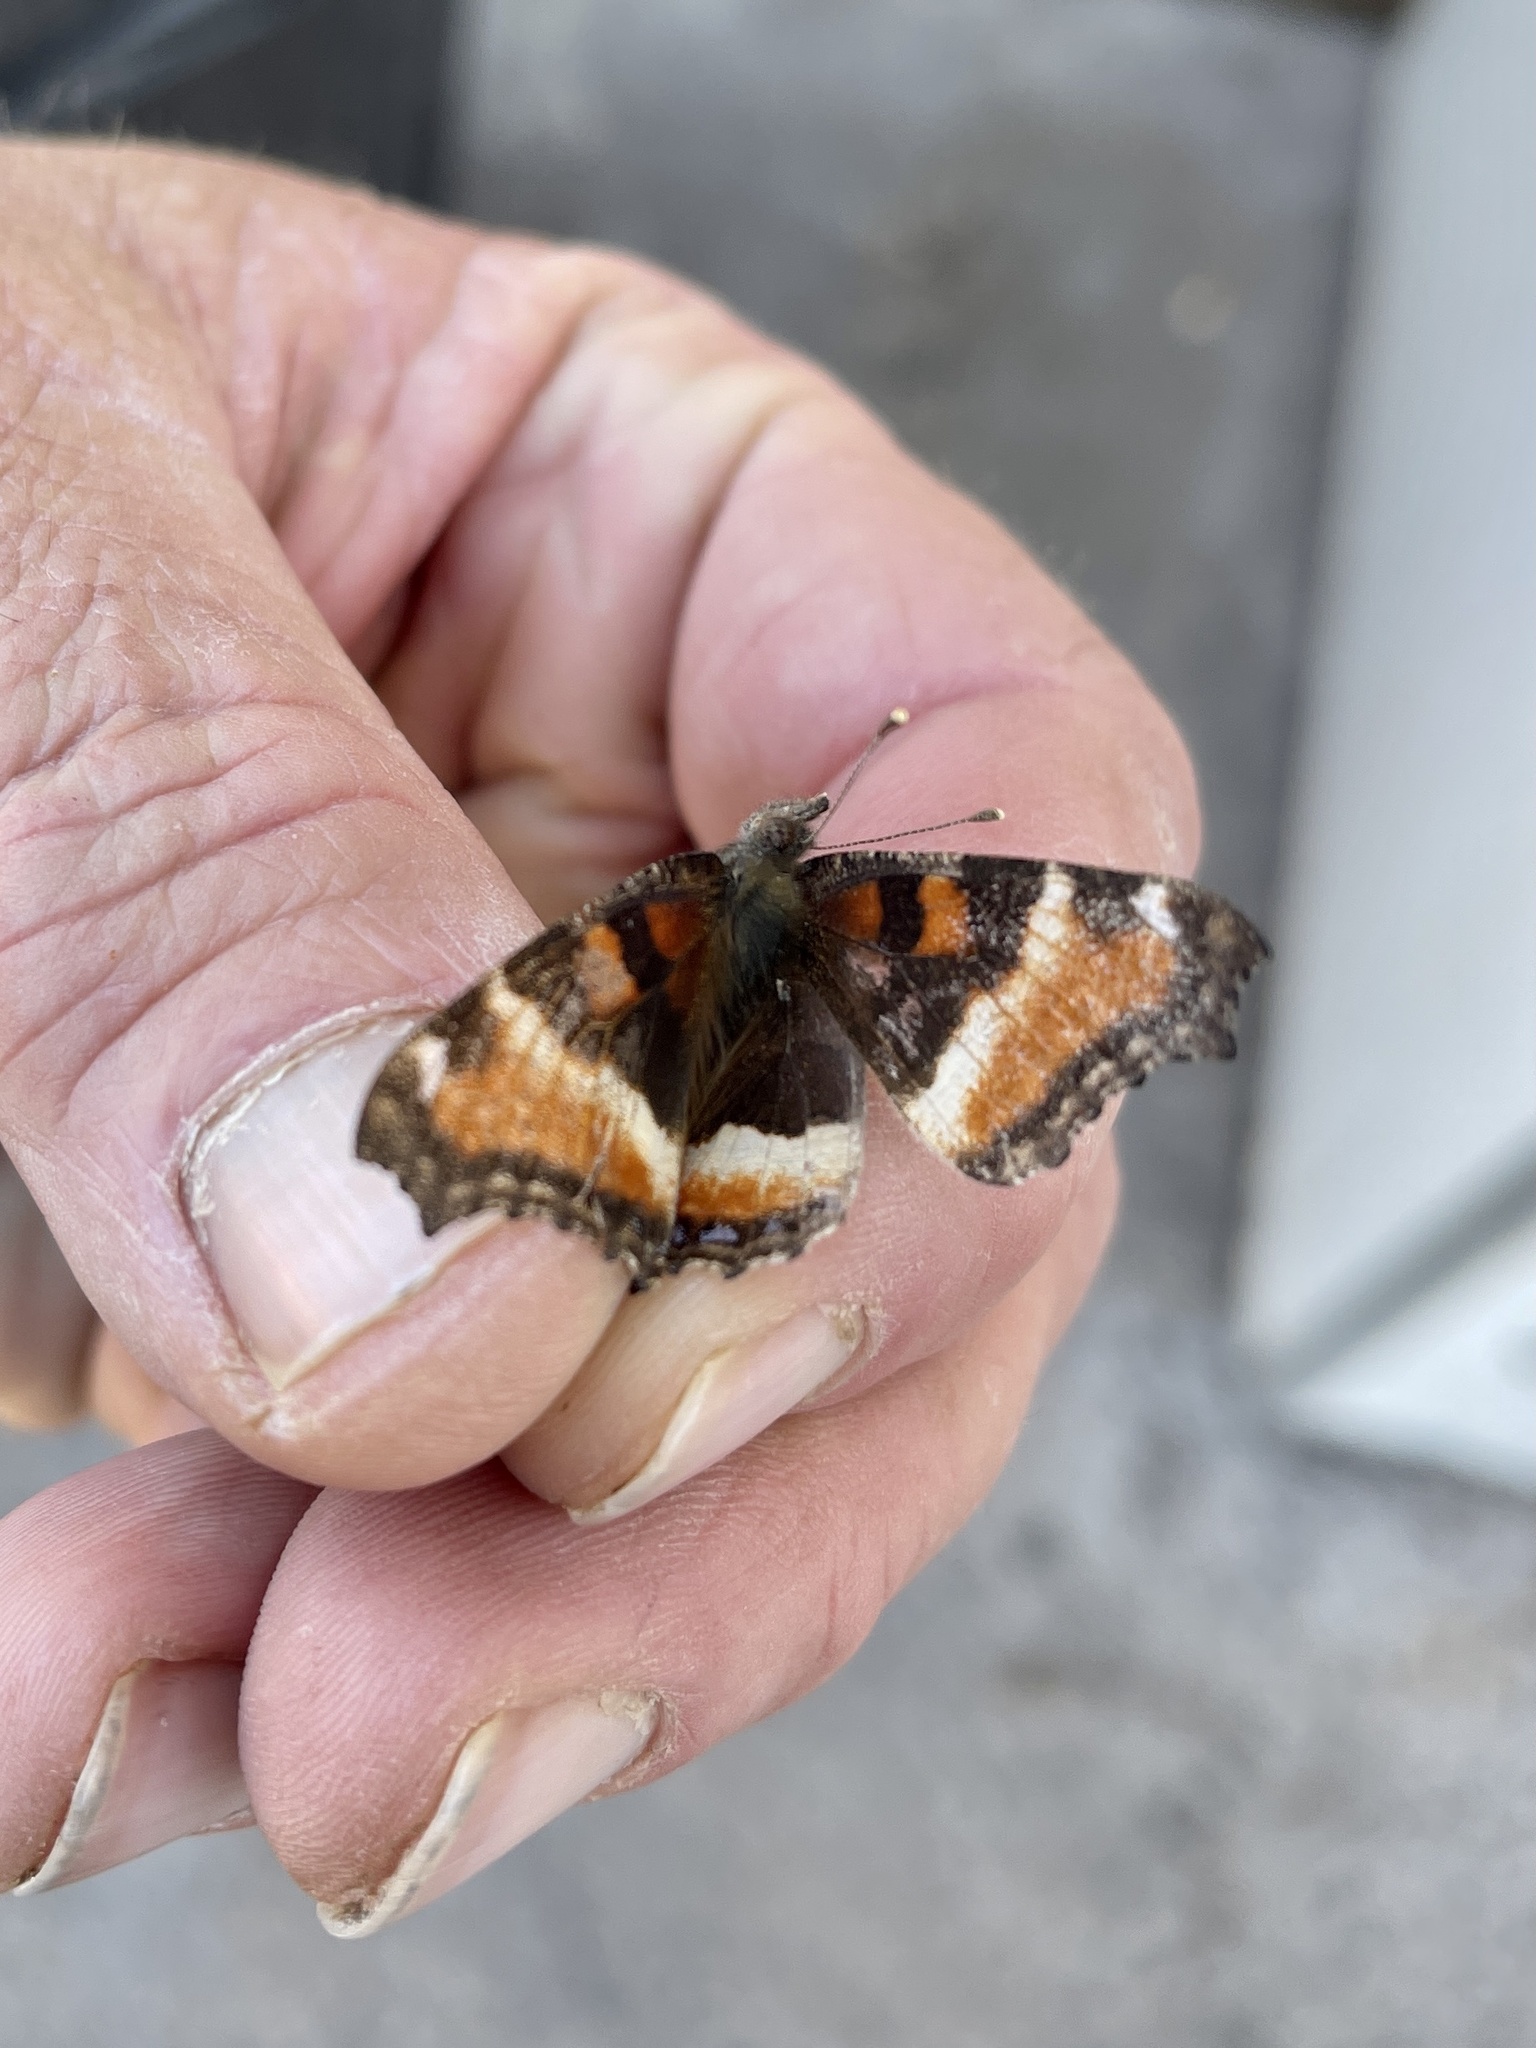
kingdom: Animalia
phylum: Arthropoda
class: Insecta
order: Lepidoptera
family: Nymphalidae
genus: Aglais
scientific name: Aglais milberti
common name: Milbert's tortoiseshell
